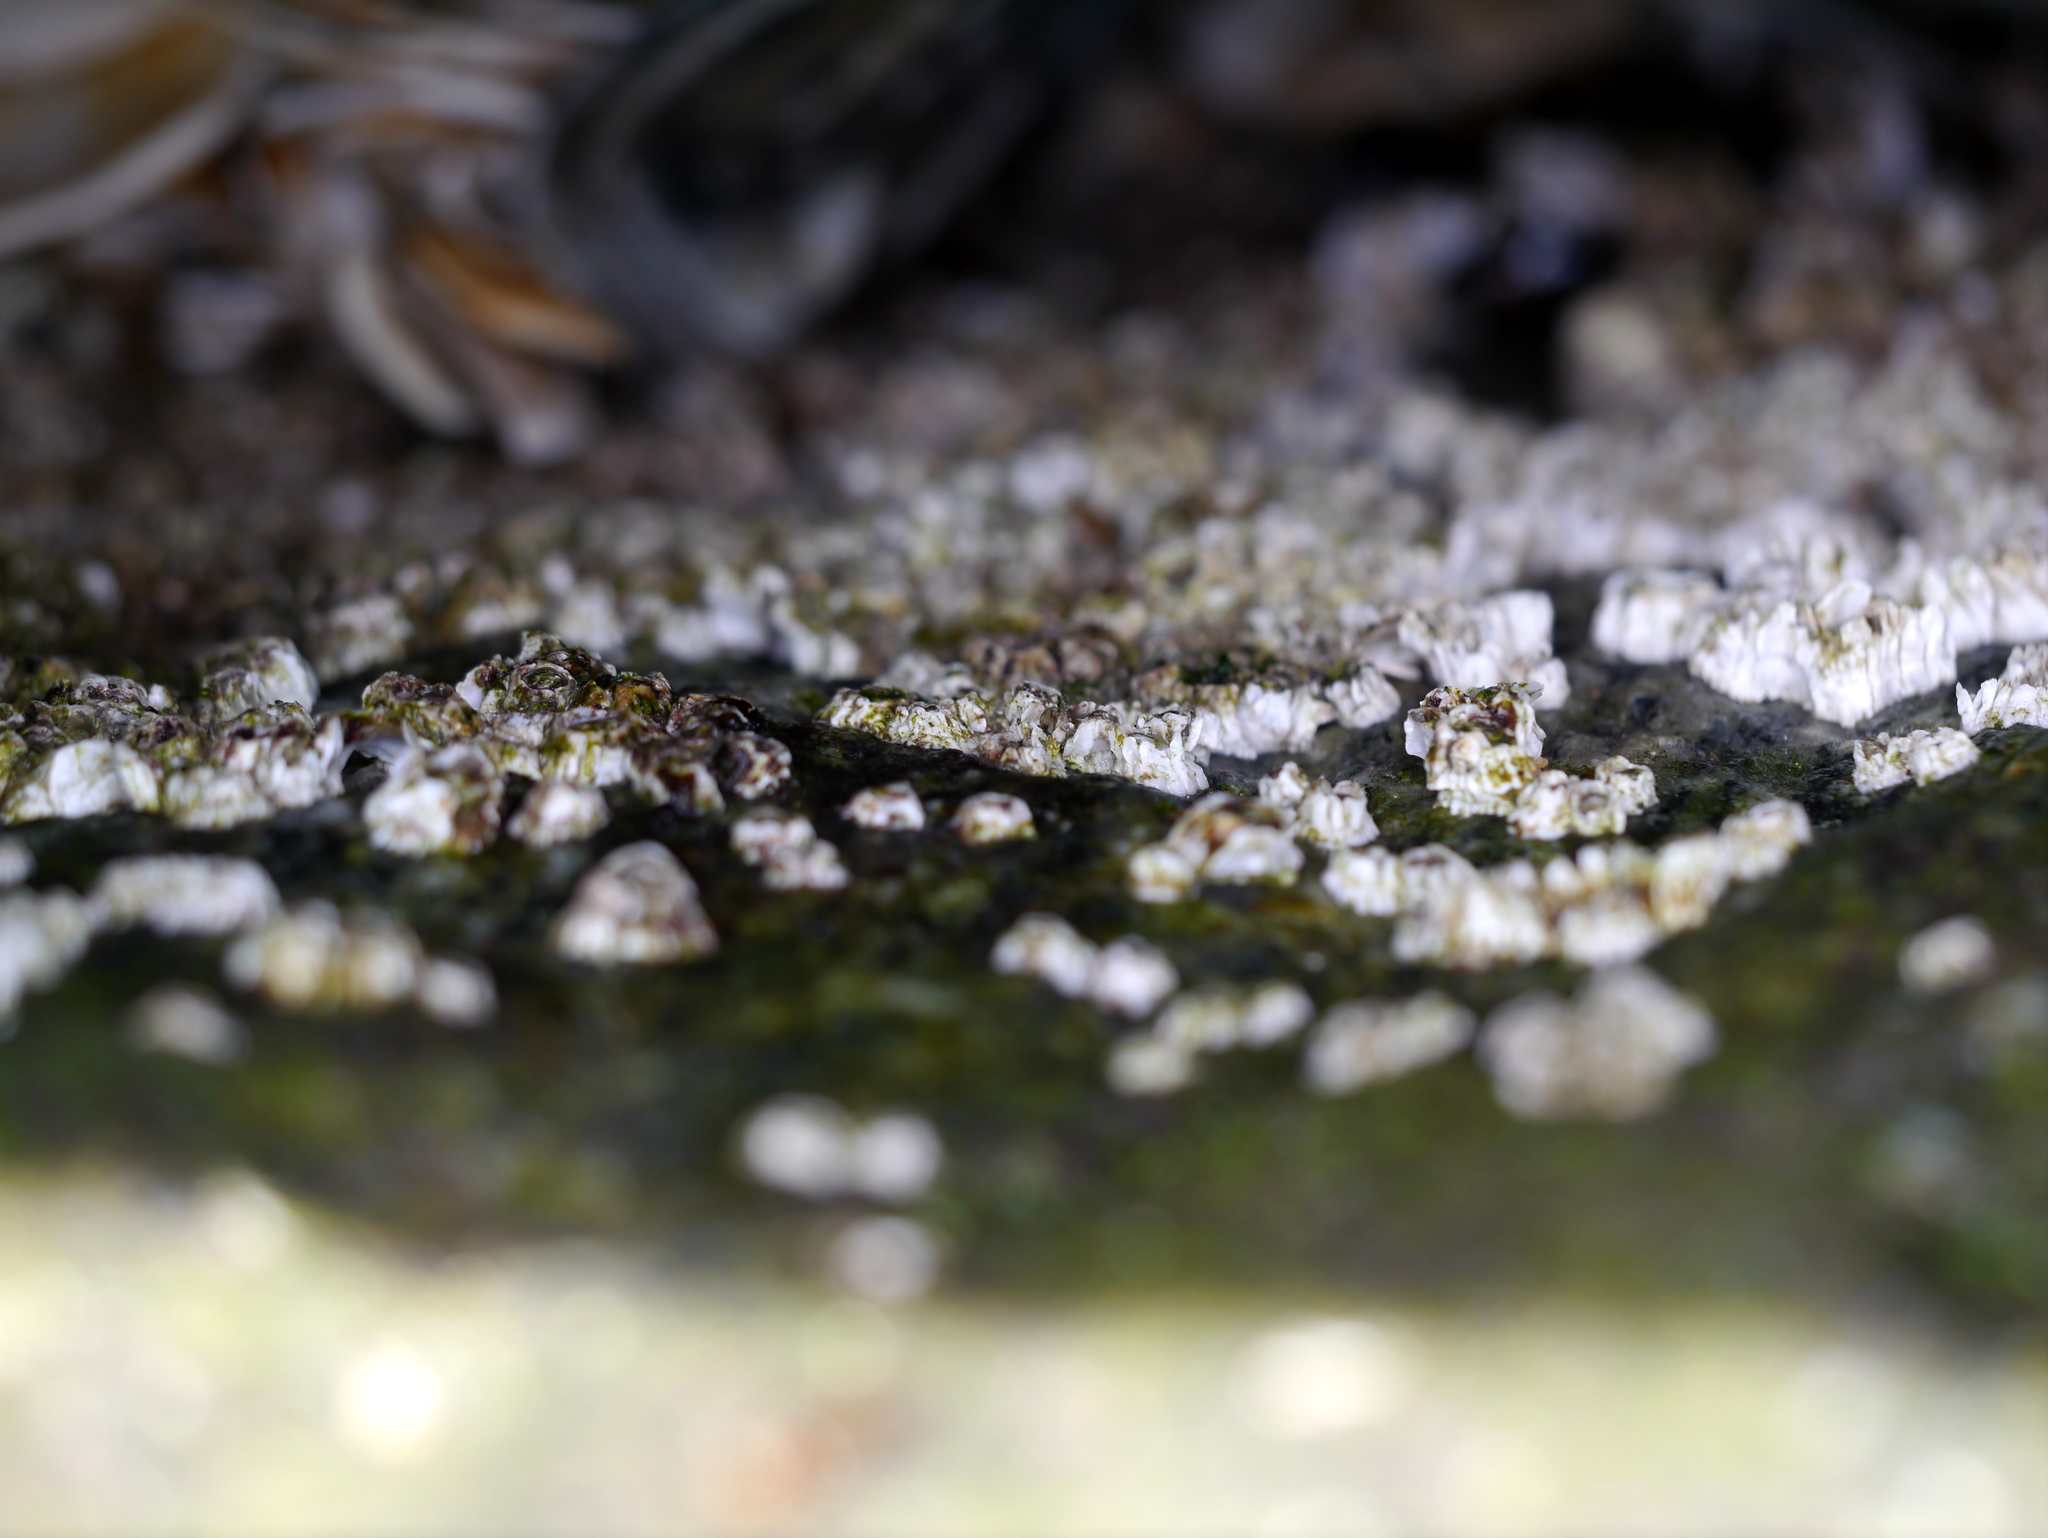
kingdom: Animalia
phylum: Arthropoda
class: Maxillopoda
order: Sessilia
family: Archaeobalanidae
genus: Semibalanus
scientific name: Semibalanus balanoides
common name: Acorn barnacle
